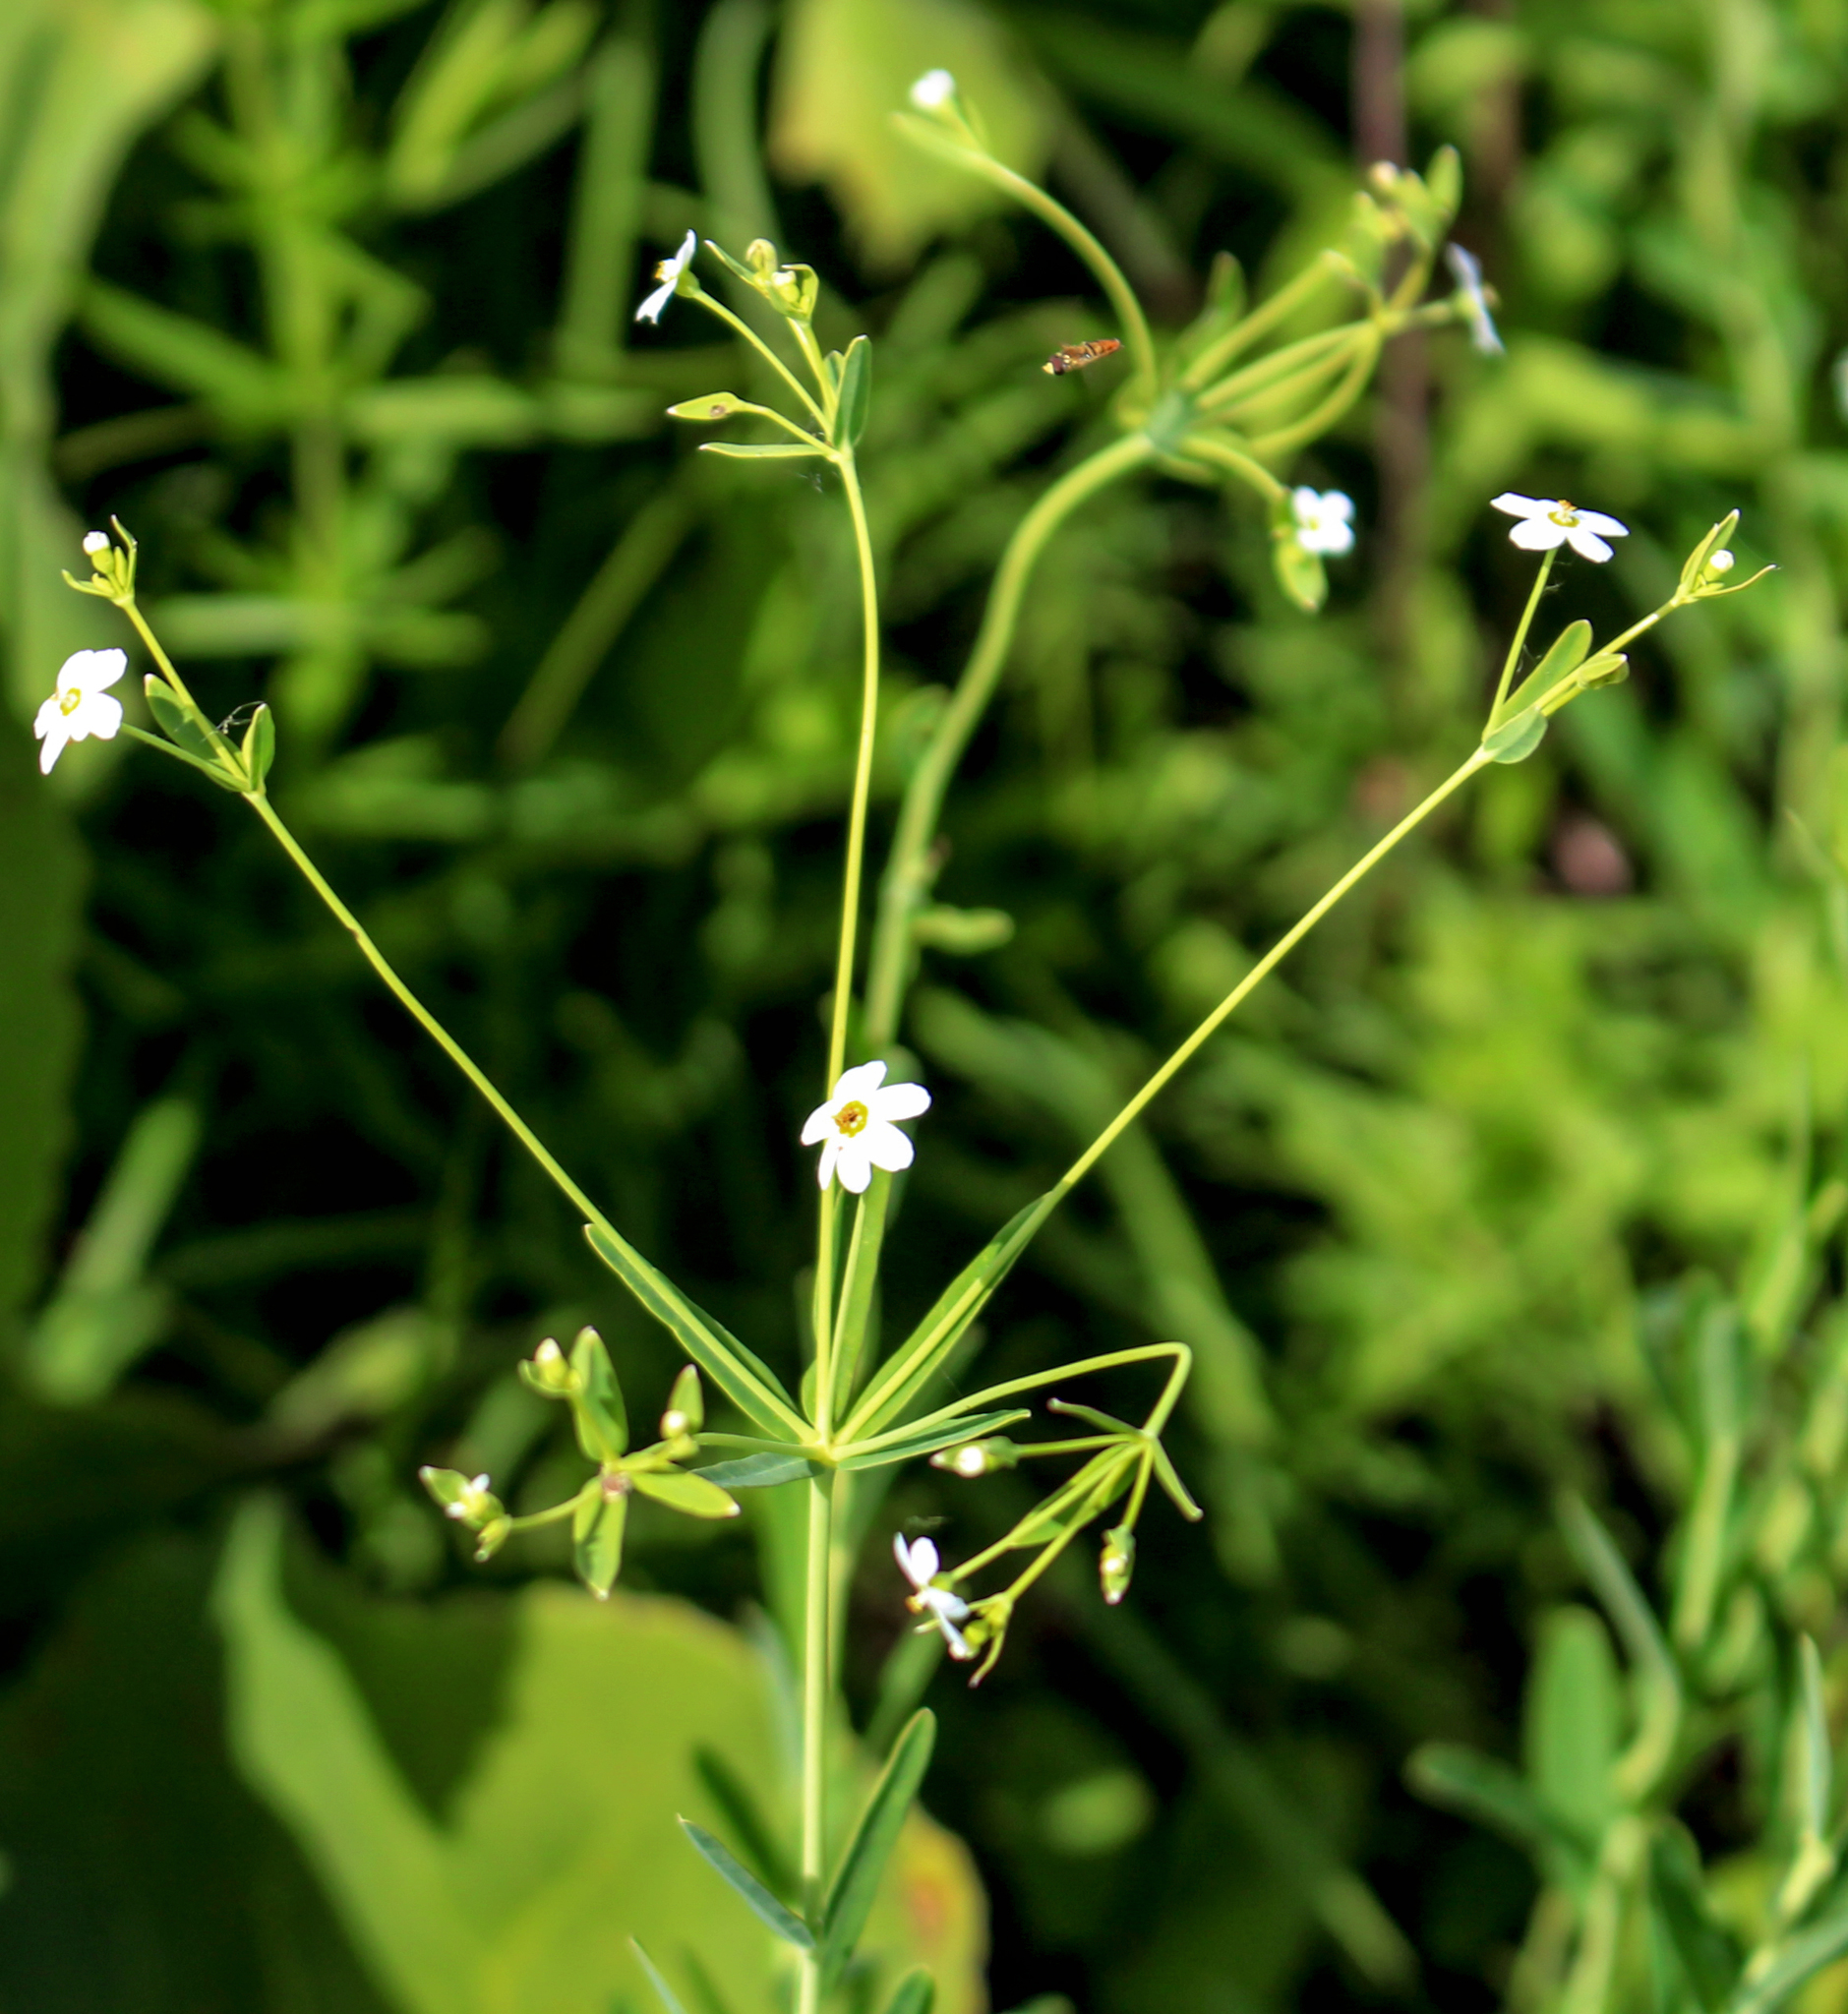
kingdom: Plantae
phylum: Tracheophyta
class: Magnoliopsida
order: Malpighiales
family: Euphorbiaceae
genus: Euphorbia
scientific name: Euphorbia corollata
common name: Flowering spurge
